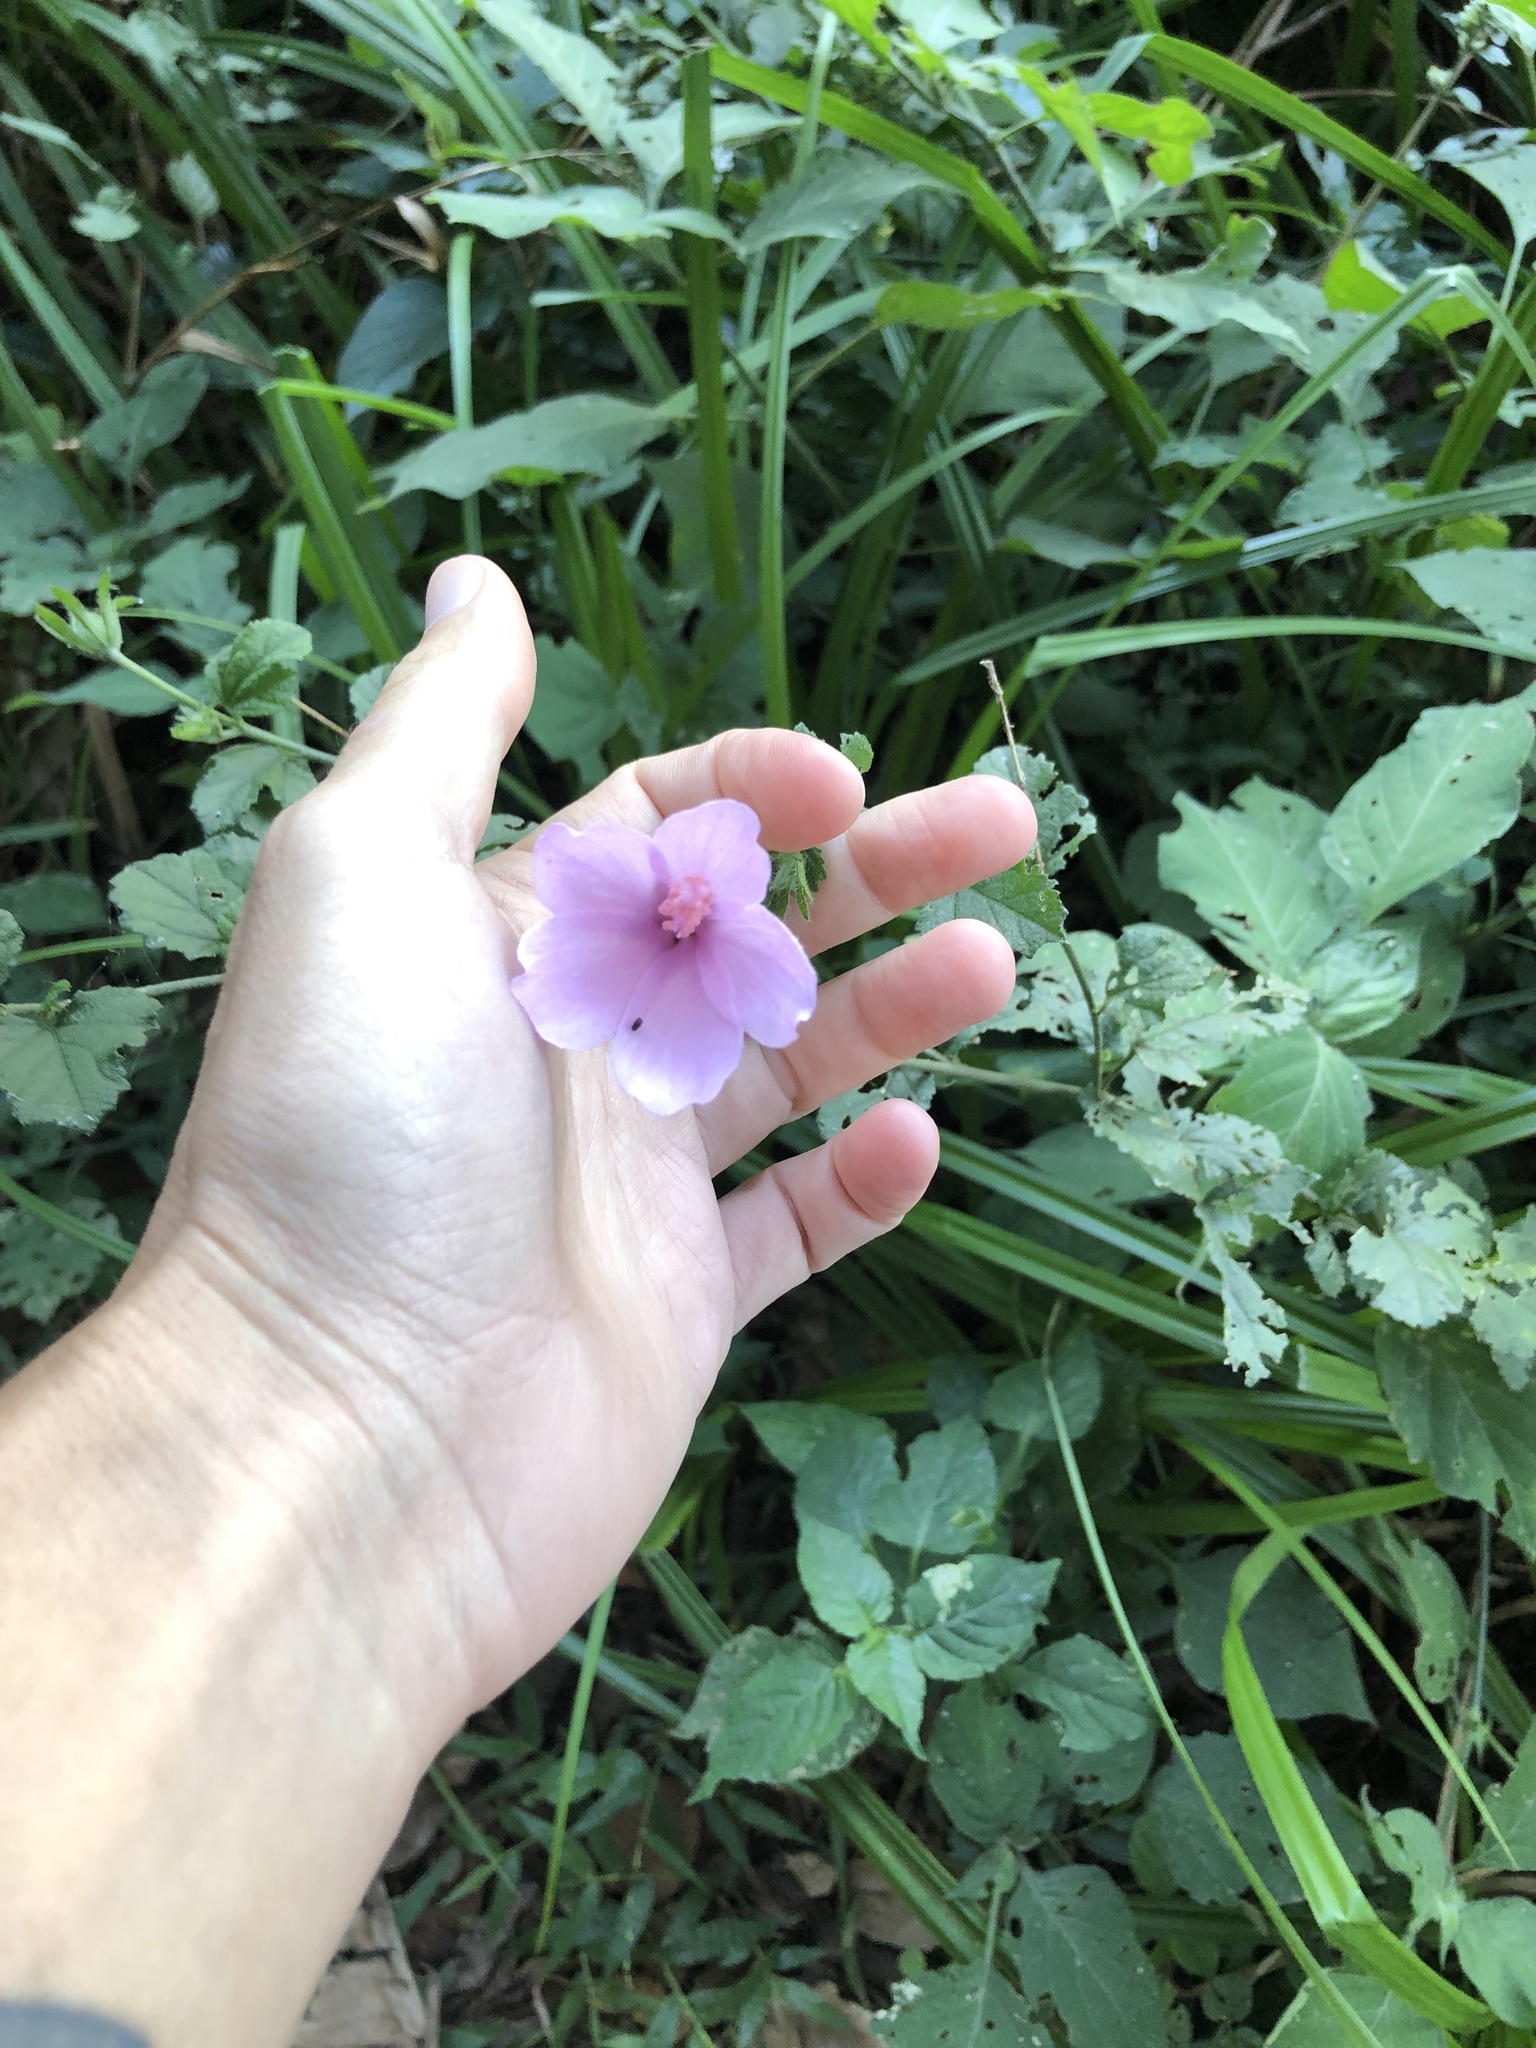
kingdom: Plantae
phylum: Tracheophyta
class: Magnoliopsida
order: Malvales
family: Malvaceae
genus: Hibiscus
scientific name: Hibiscus pedunculatus
